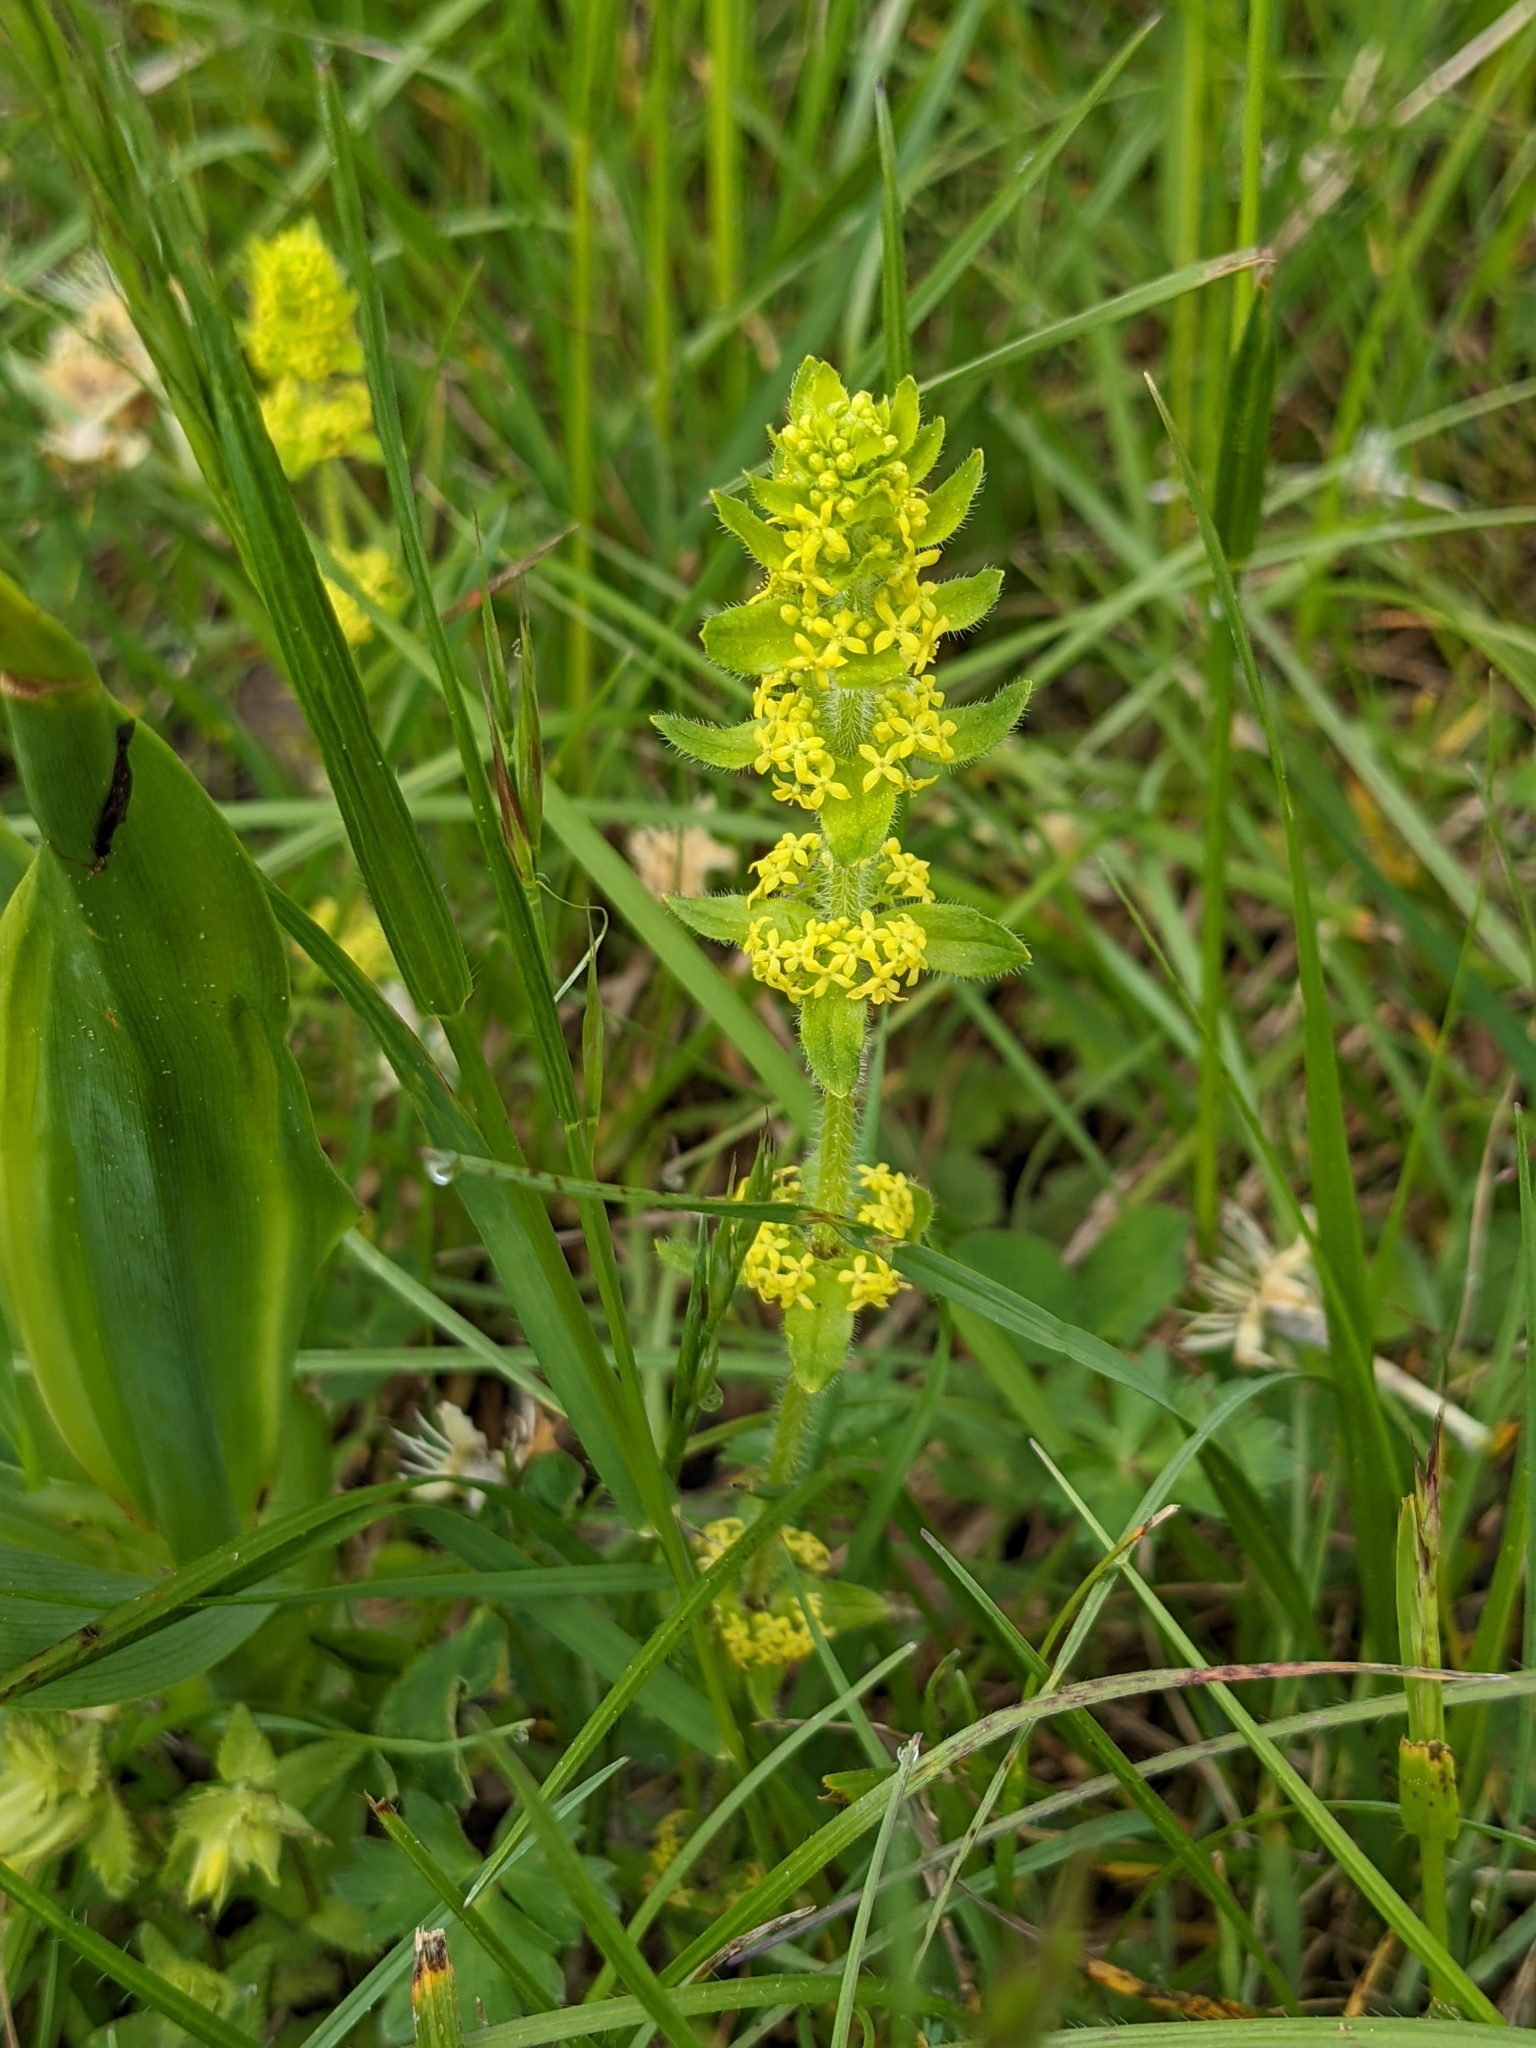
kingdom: Plantae
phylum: Tracheophyta
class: Magnoliopsida
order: Gentianales
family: Rubiaceae
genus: Cruciata
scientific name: Cruciata laevipes
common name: Crosswort
